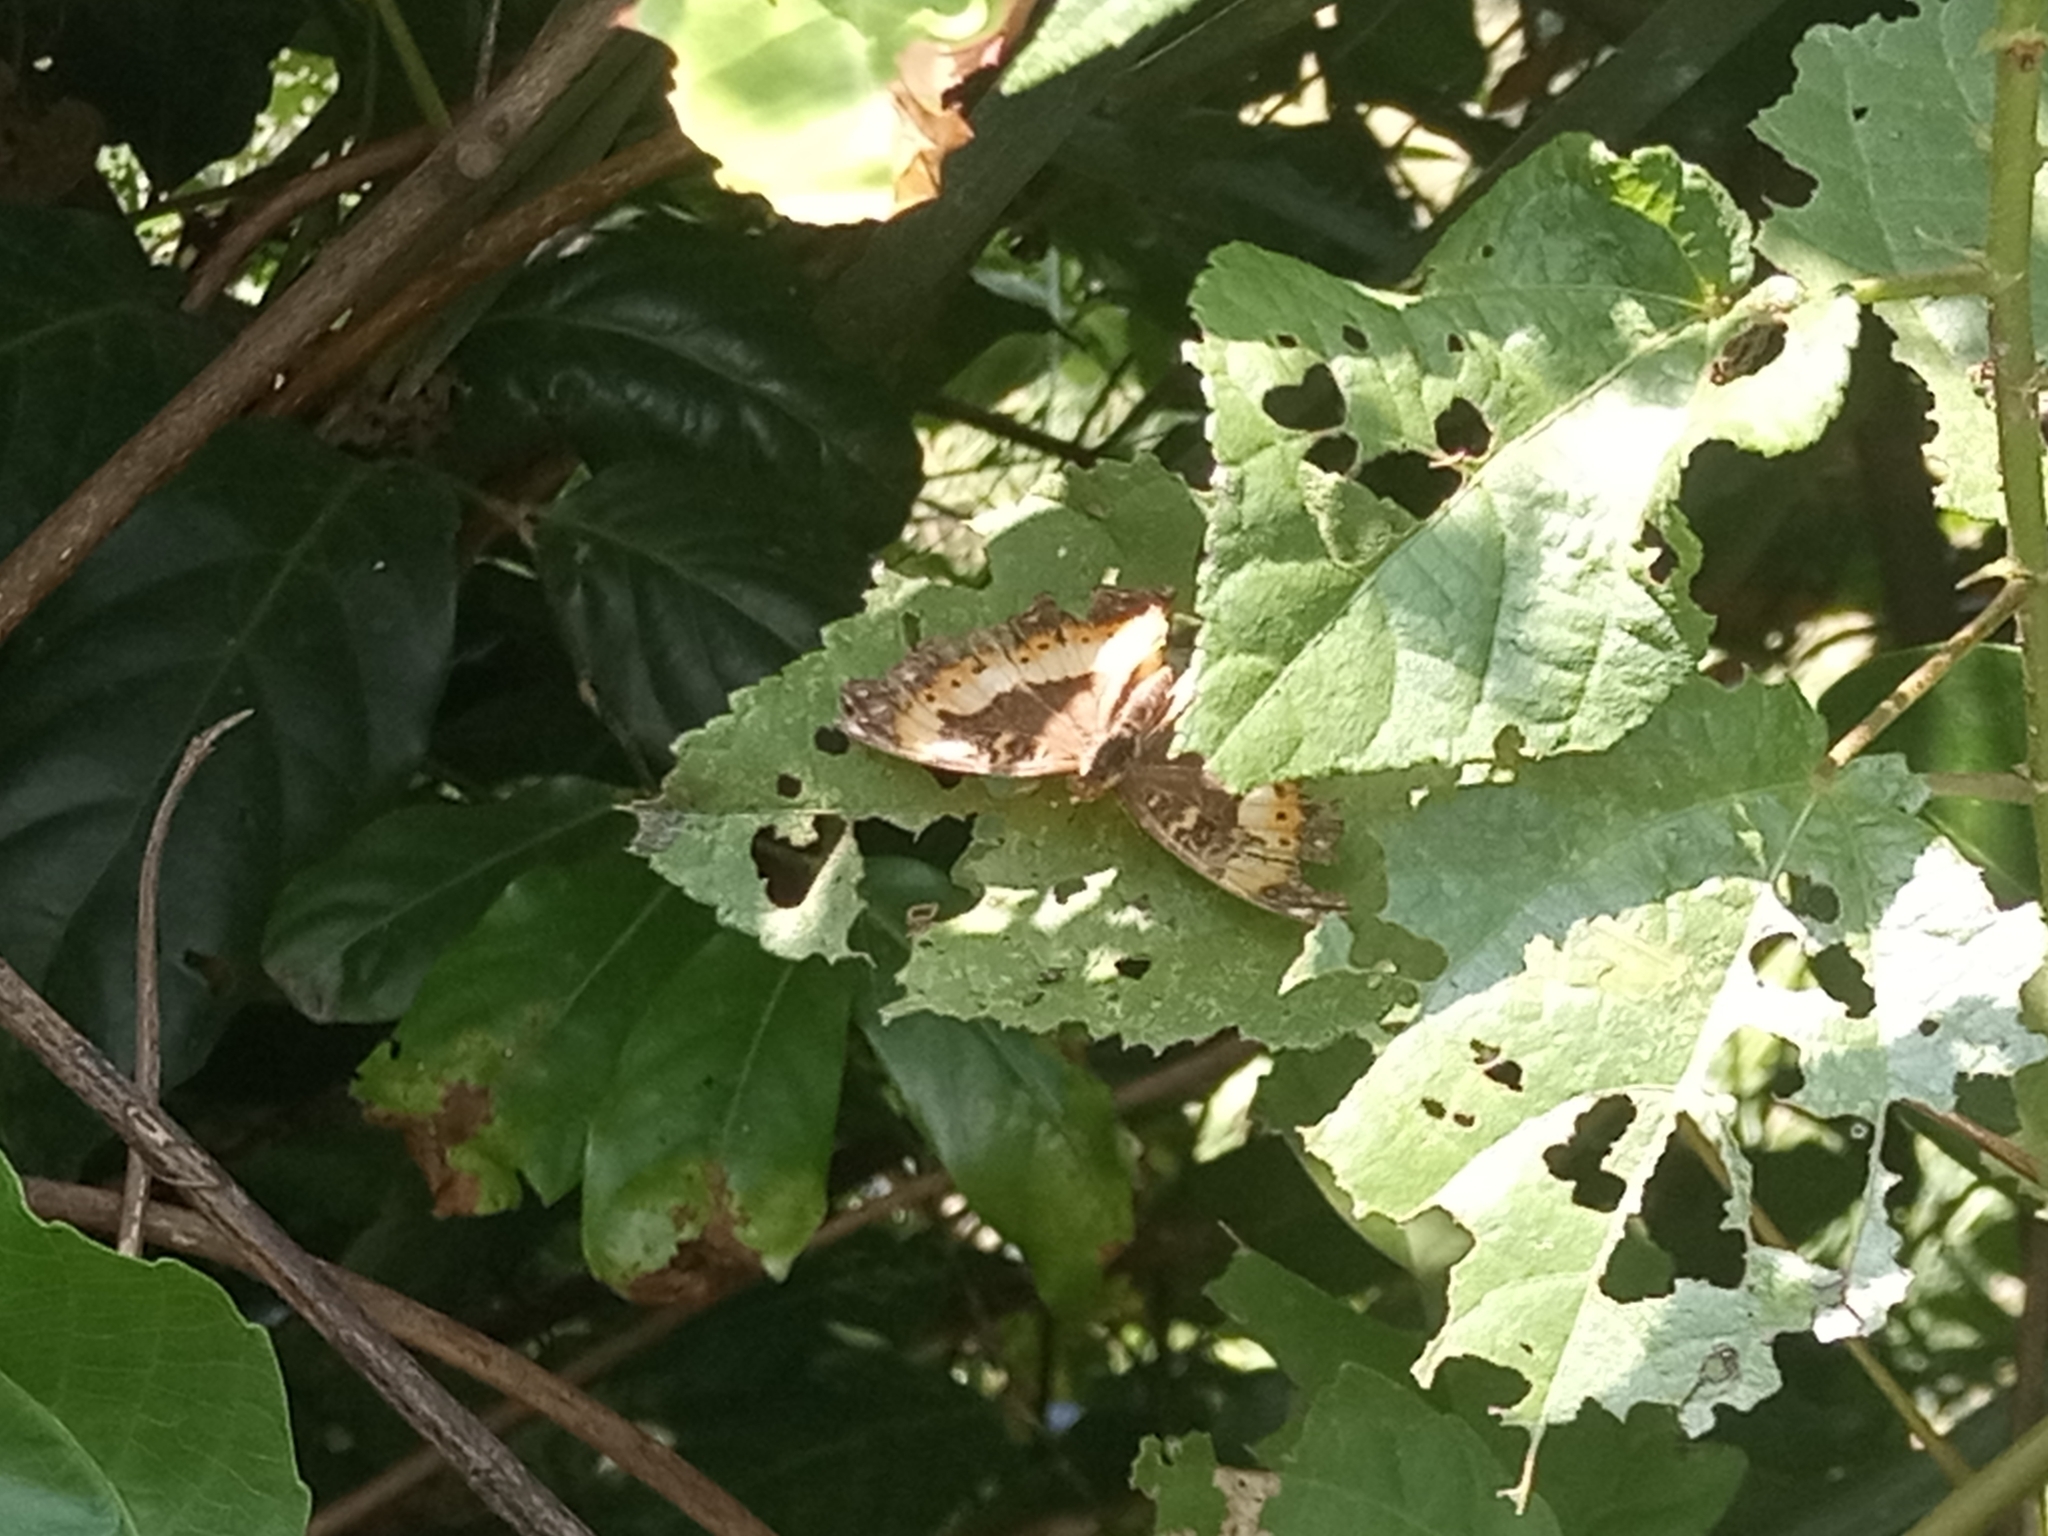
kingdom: Animalia
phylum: Arthropoda
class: Insecta
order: Lepidoptera
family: Nymphalidae
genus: Precis
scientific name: Precis pelarga
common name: Fashion commodore
